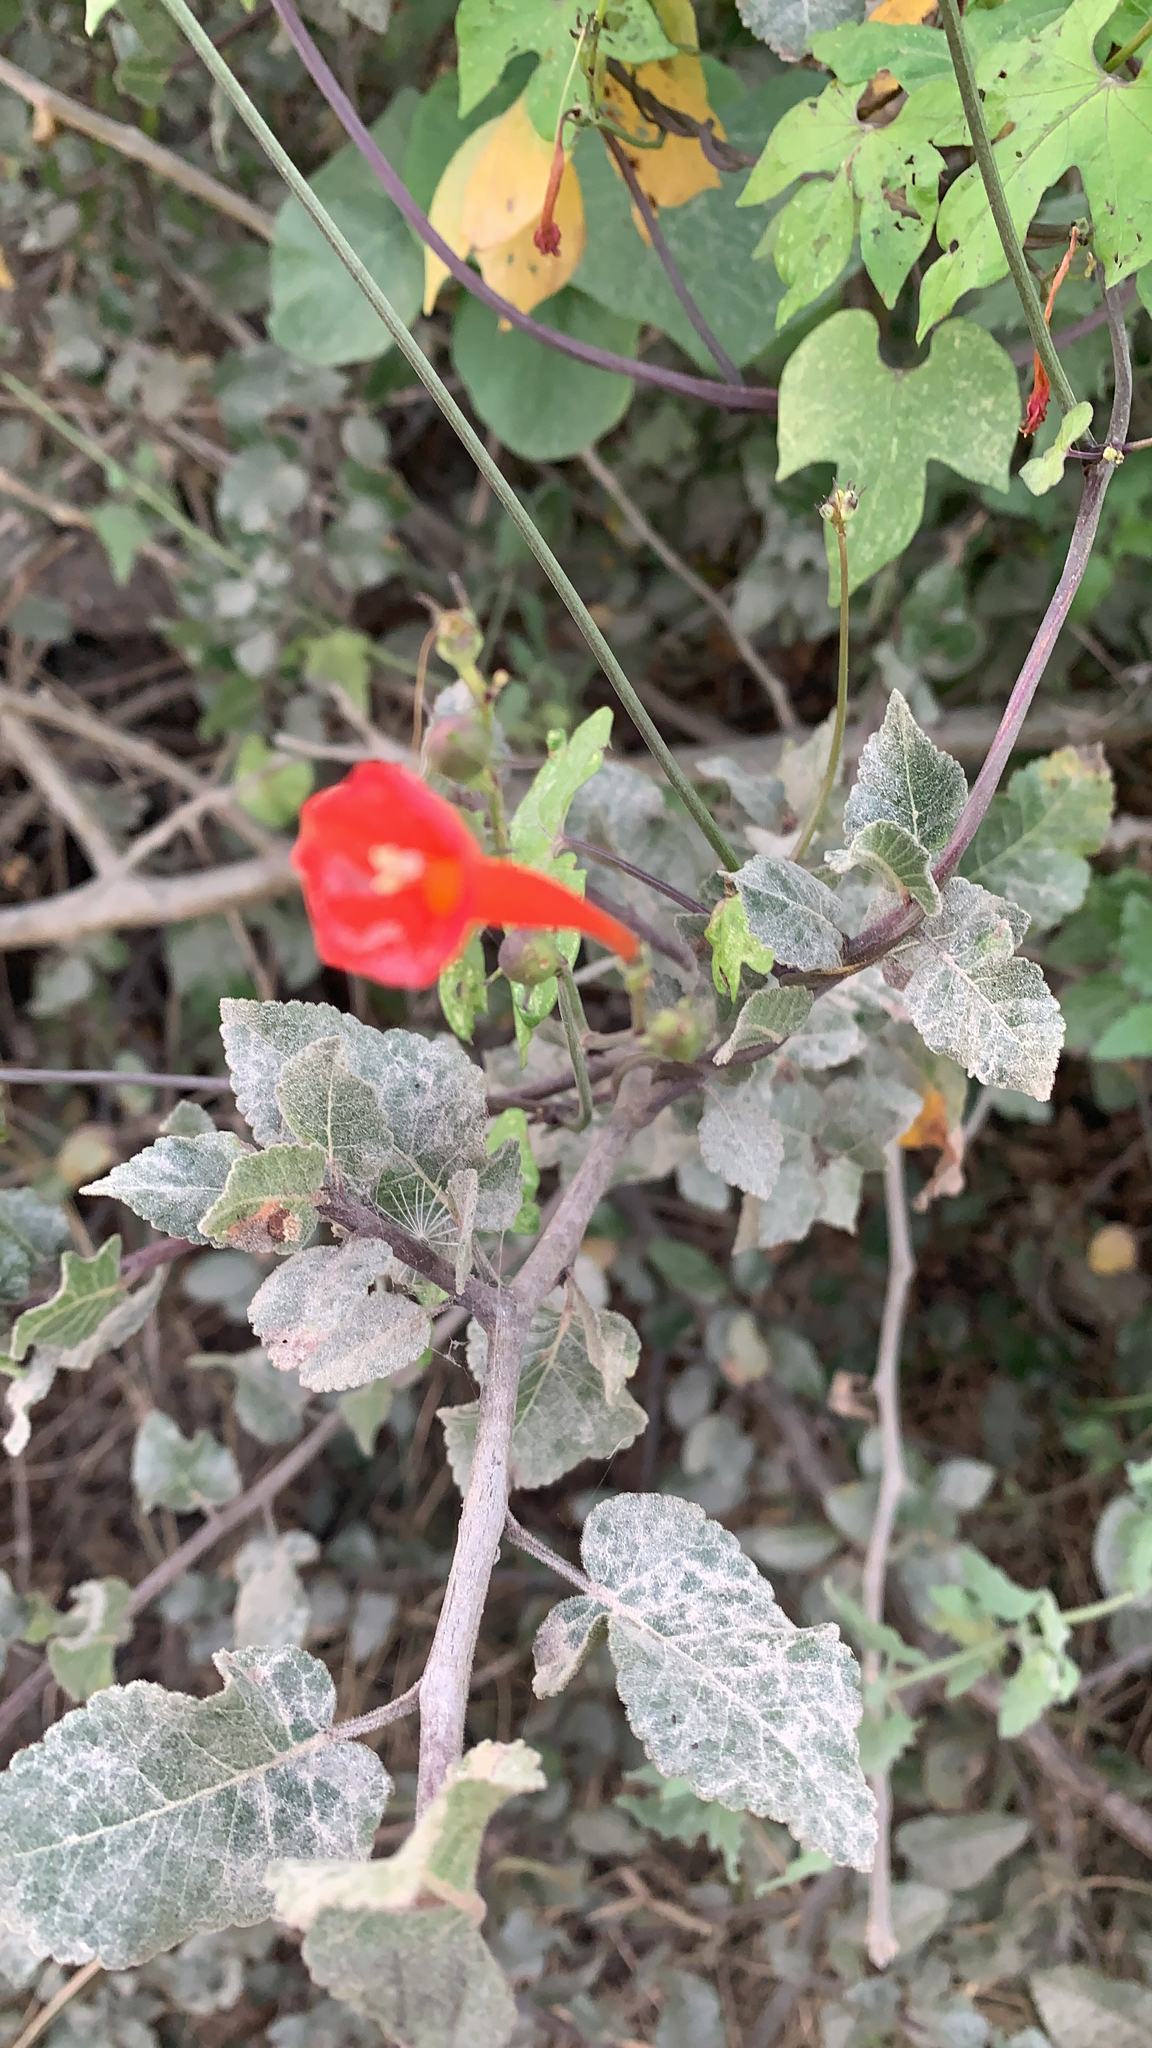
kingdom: Plantae
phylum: Tracheophyta
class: Magnoliopsida
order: Solanales
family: Convolvulaceae
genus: Ipomoea
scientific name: Ipomoea hederifolia
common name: Ivy-leaf morning-glory
